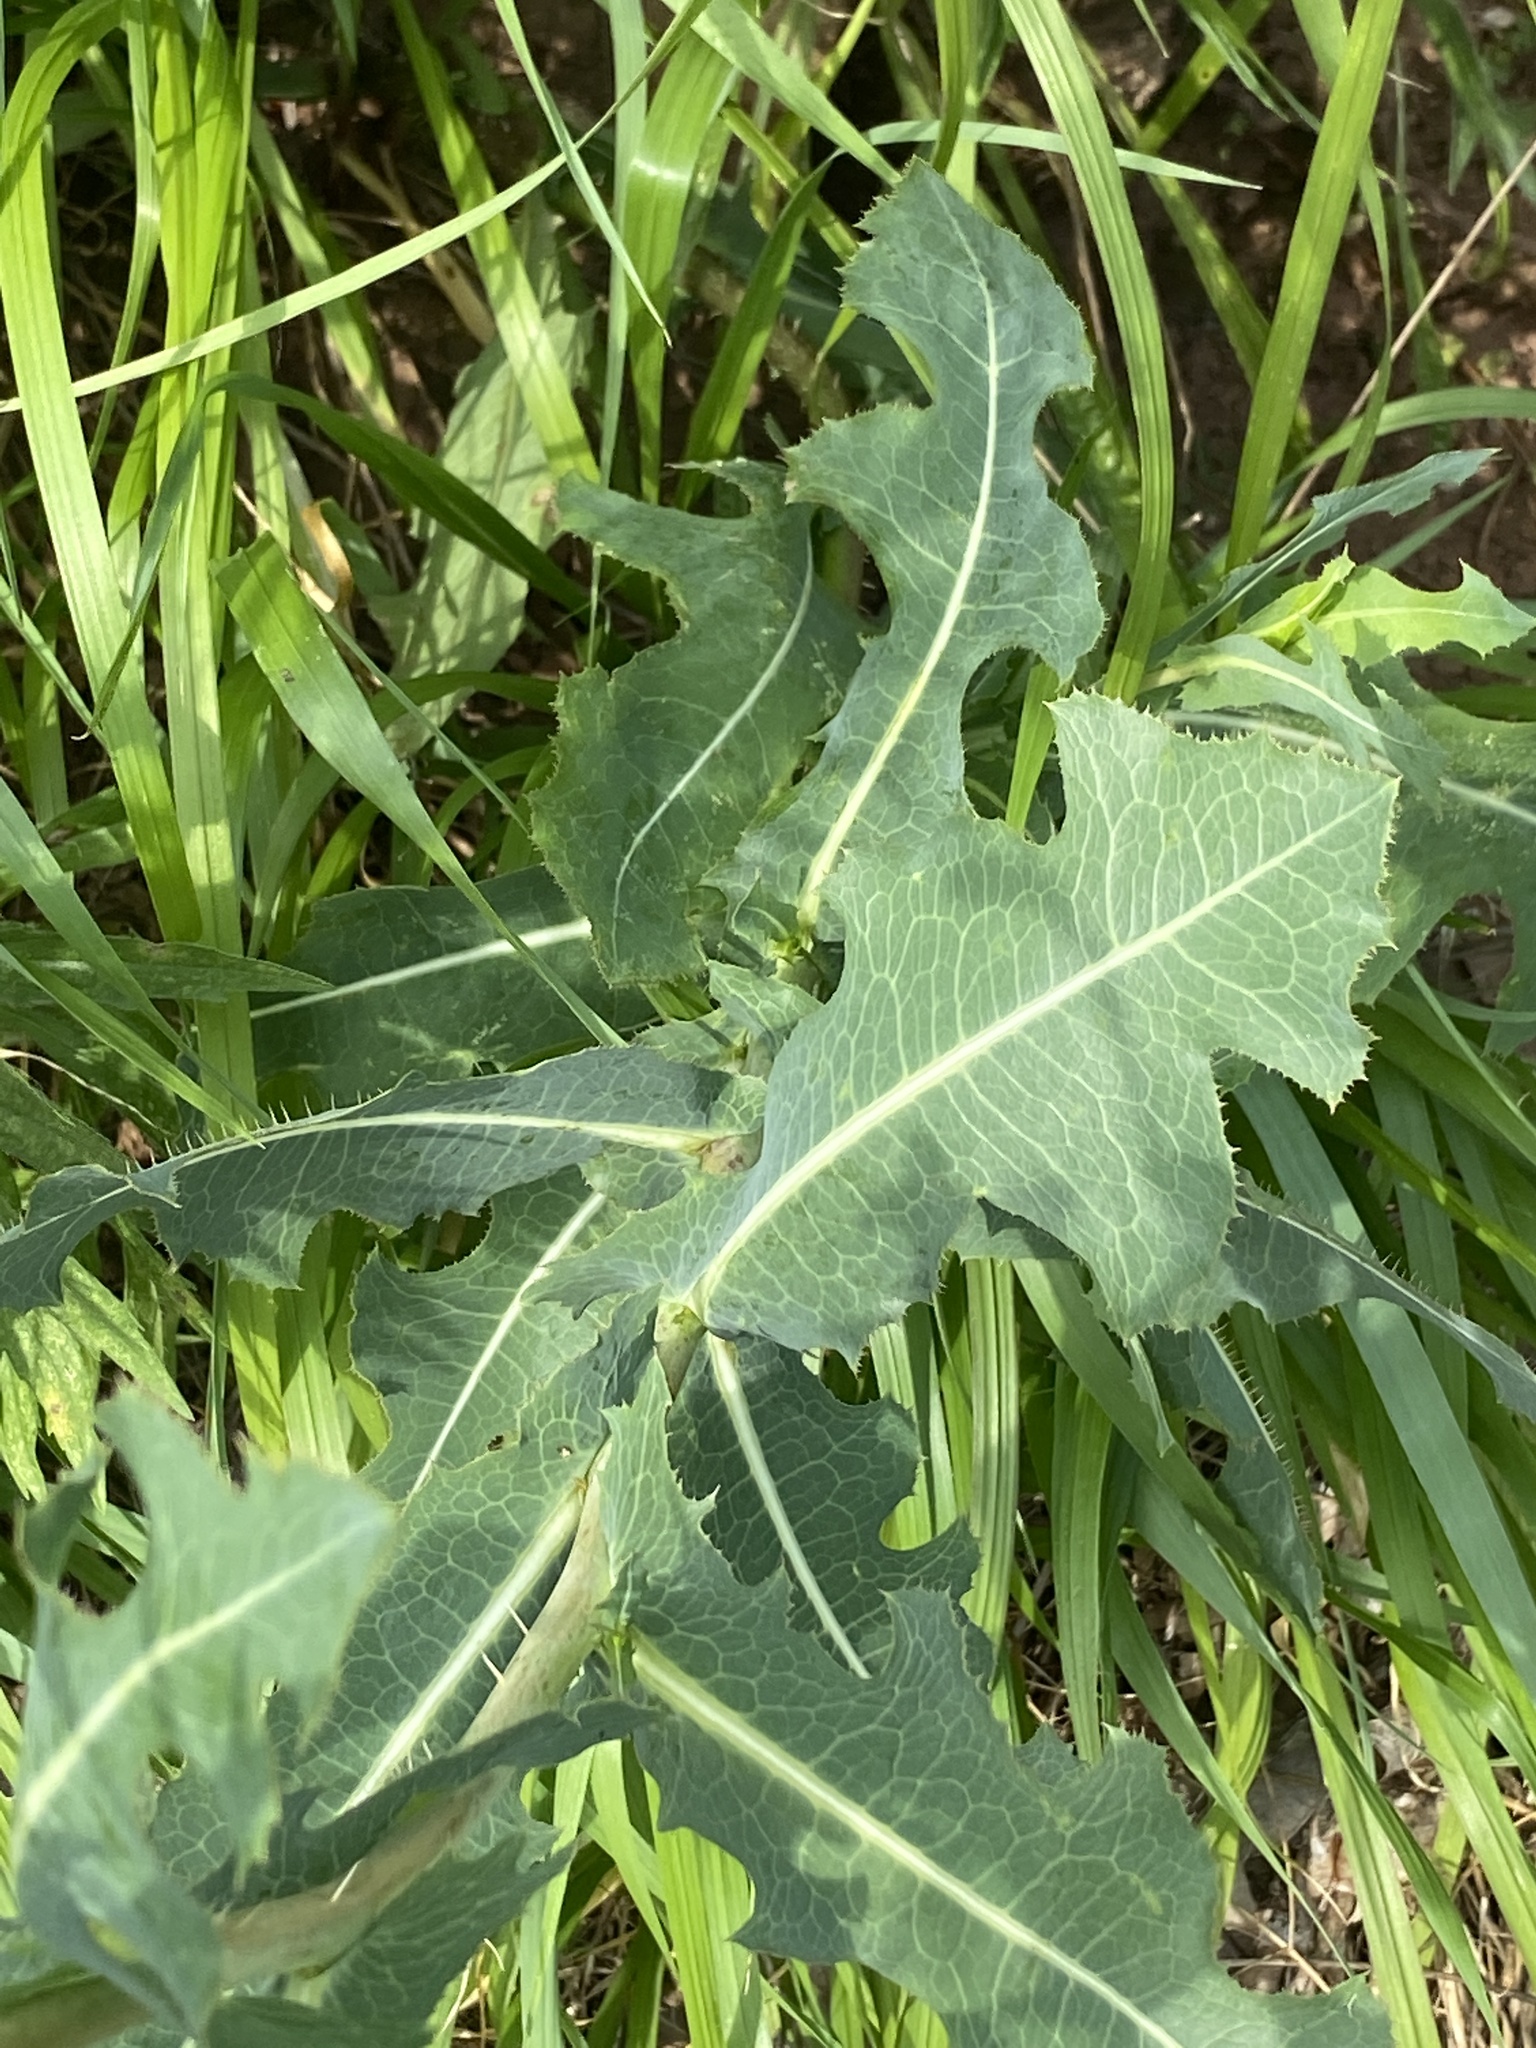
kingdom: Plantae
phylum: Tracheophyta
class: Magnoliopsida
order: Asterales
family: Asteraceae
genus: Lactuca
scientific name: Lactuca serriola
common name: Prickly lettuce
